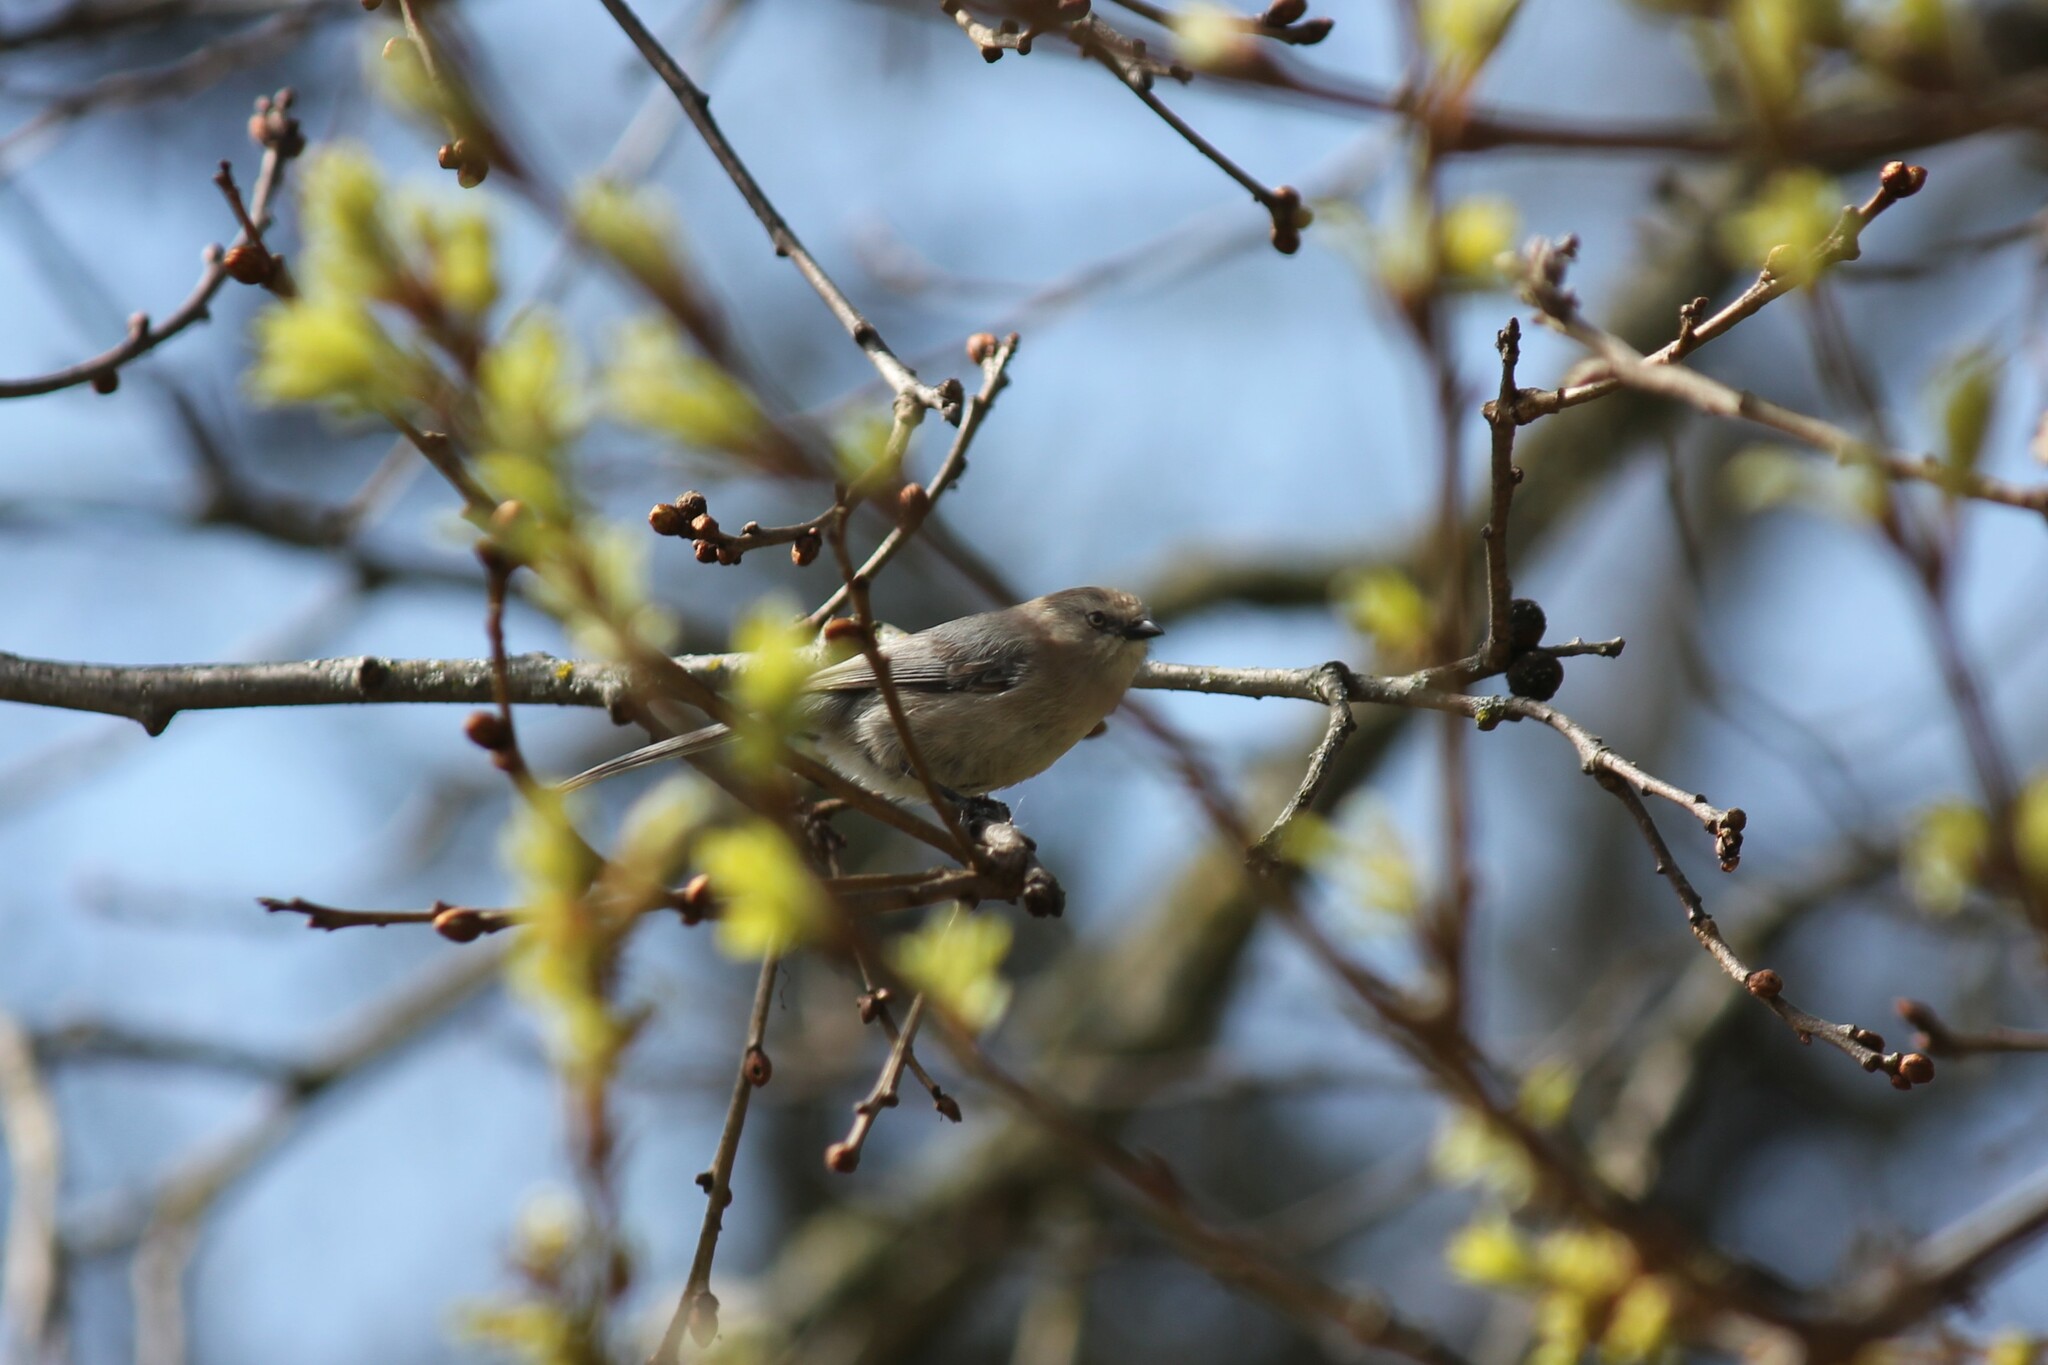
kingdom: Animalia
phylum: Chordata
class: Aves
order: Passeriformes
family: Aegithalidae
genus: Psaltriparus
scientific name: Psaltriparus minimus
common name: American bushtit
